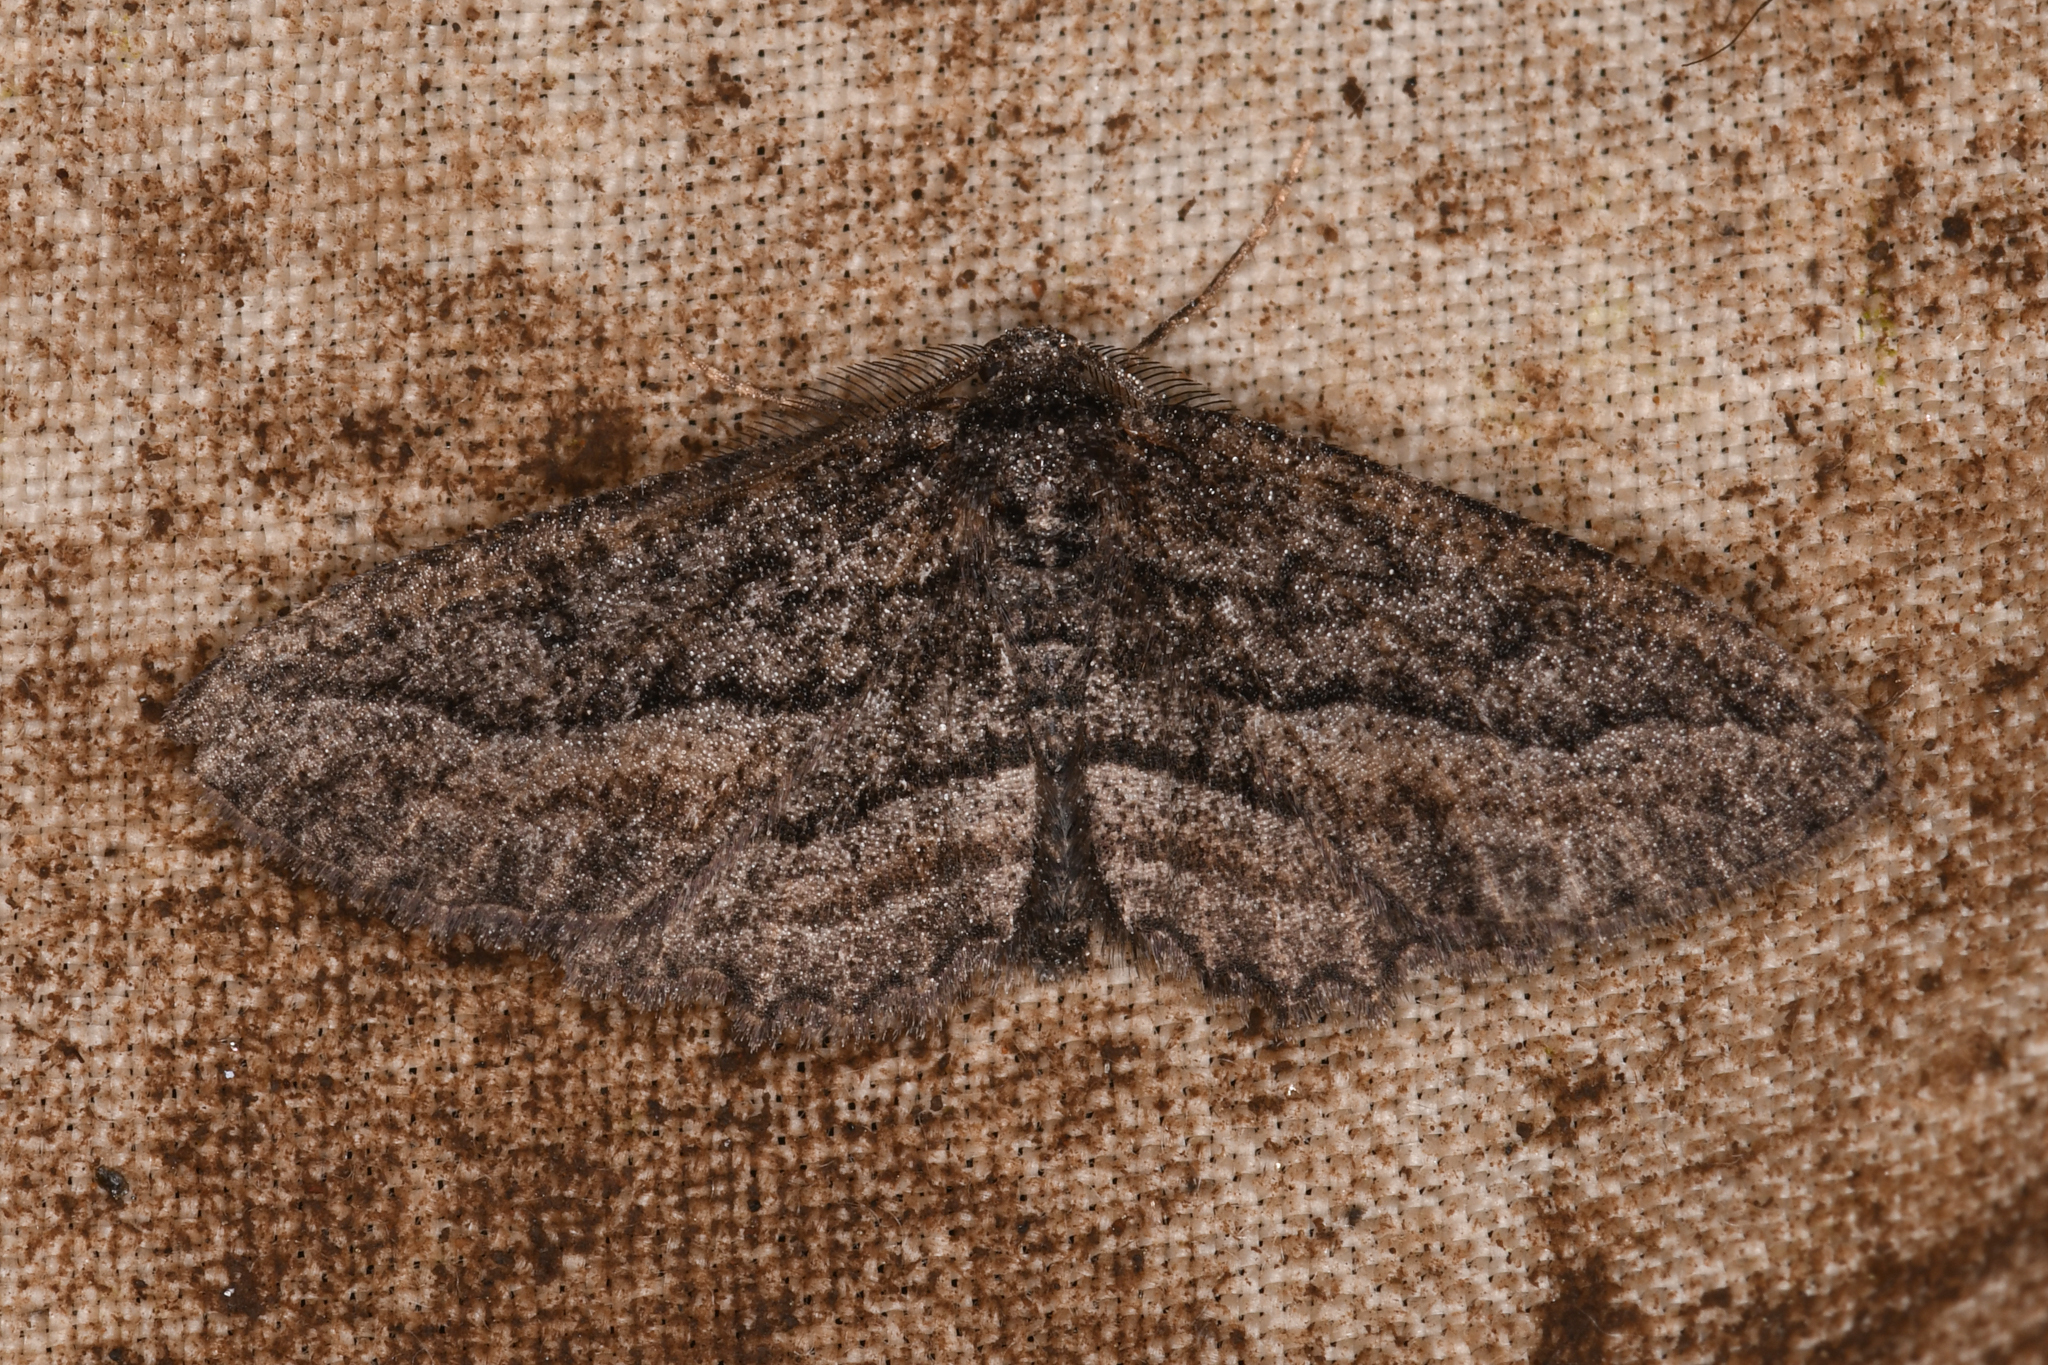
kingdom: Animalia
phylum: Arthropoda
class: Insecta
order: Lepidoptera
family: Geometridae
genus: Aethaloida
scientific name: Aethaloida packardaria
